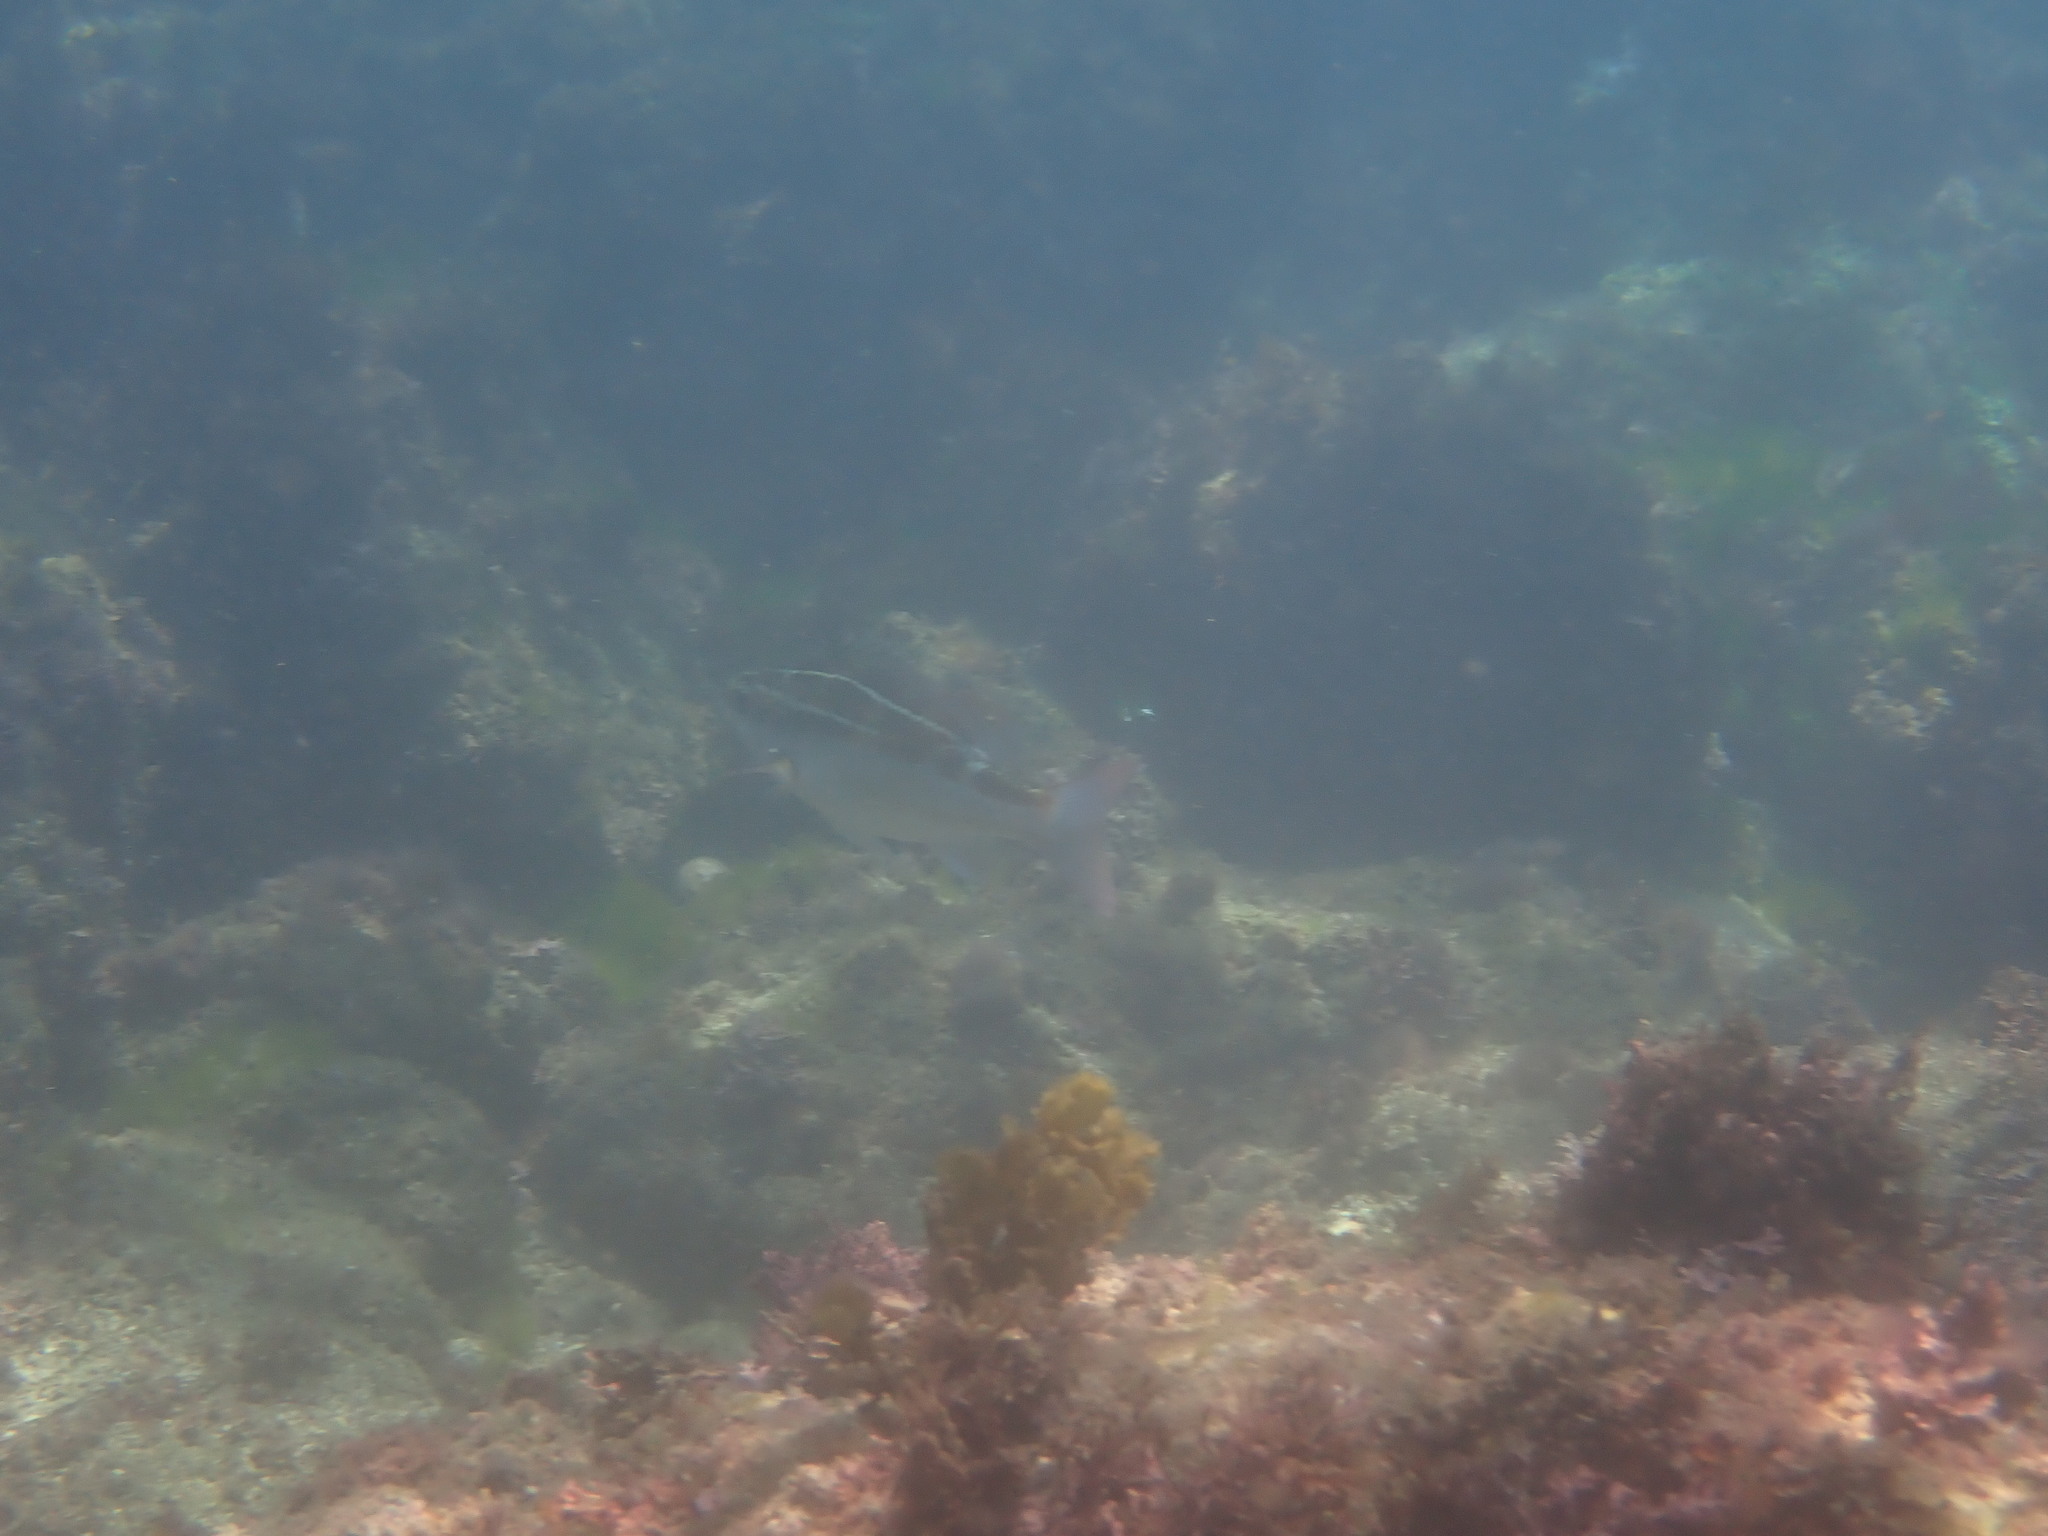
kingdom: Animalia
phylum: Chordata
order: Perciformes
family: Nemipteridae
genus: Scolopsis
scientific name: Scolopsis lineata
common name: Striped monocle bream
